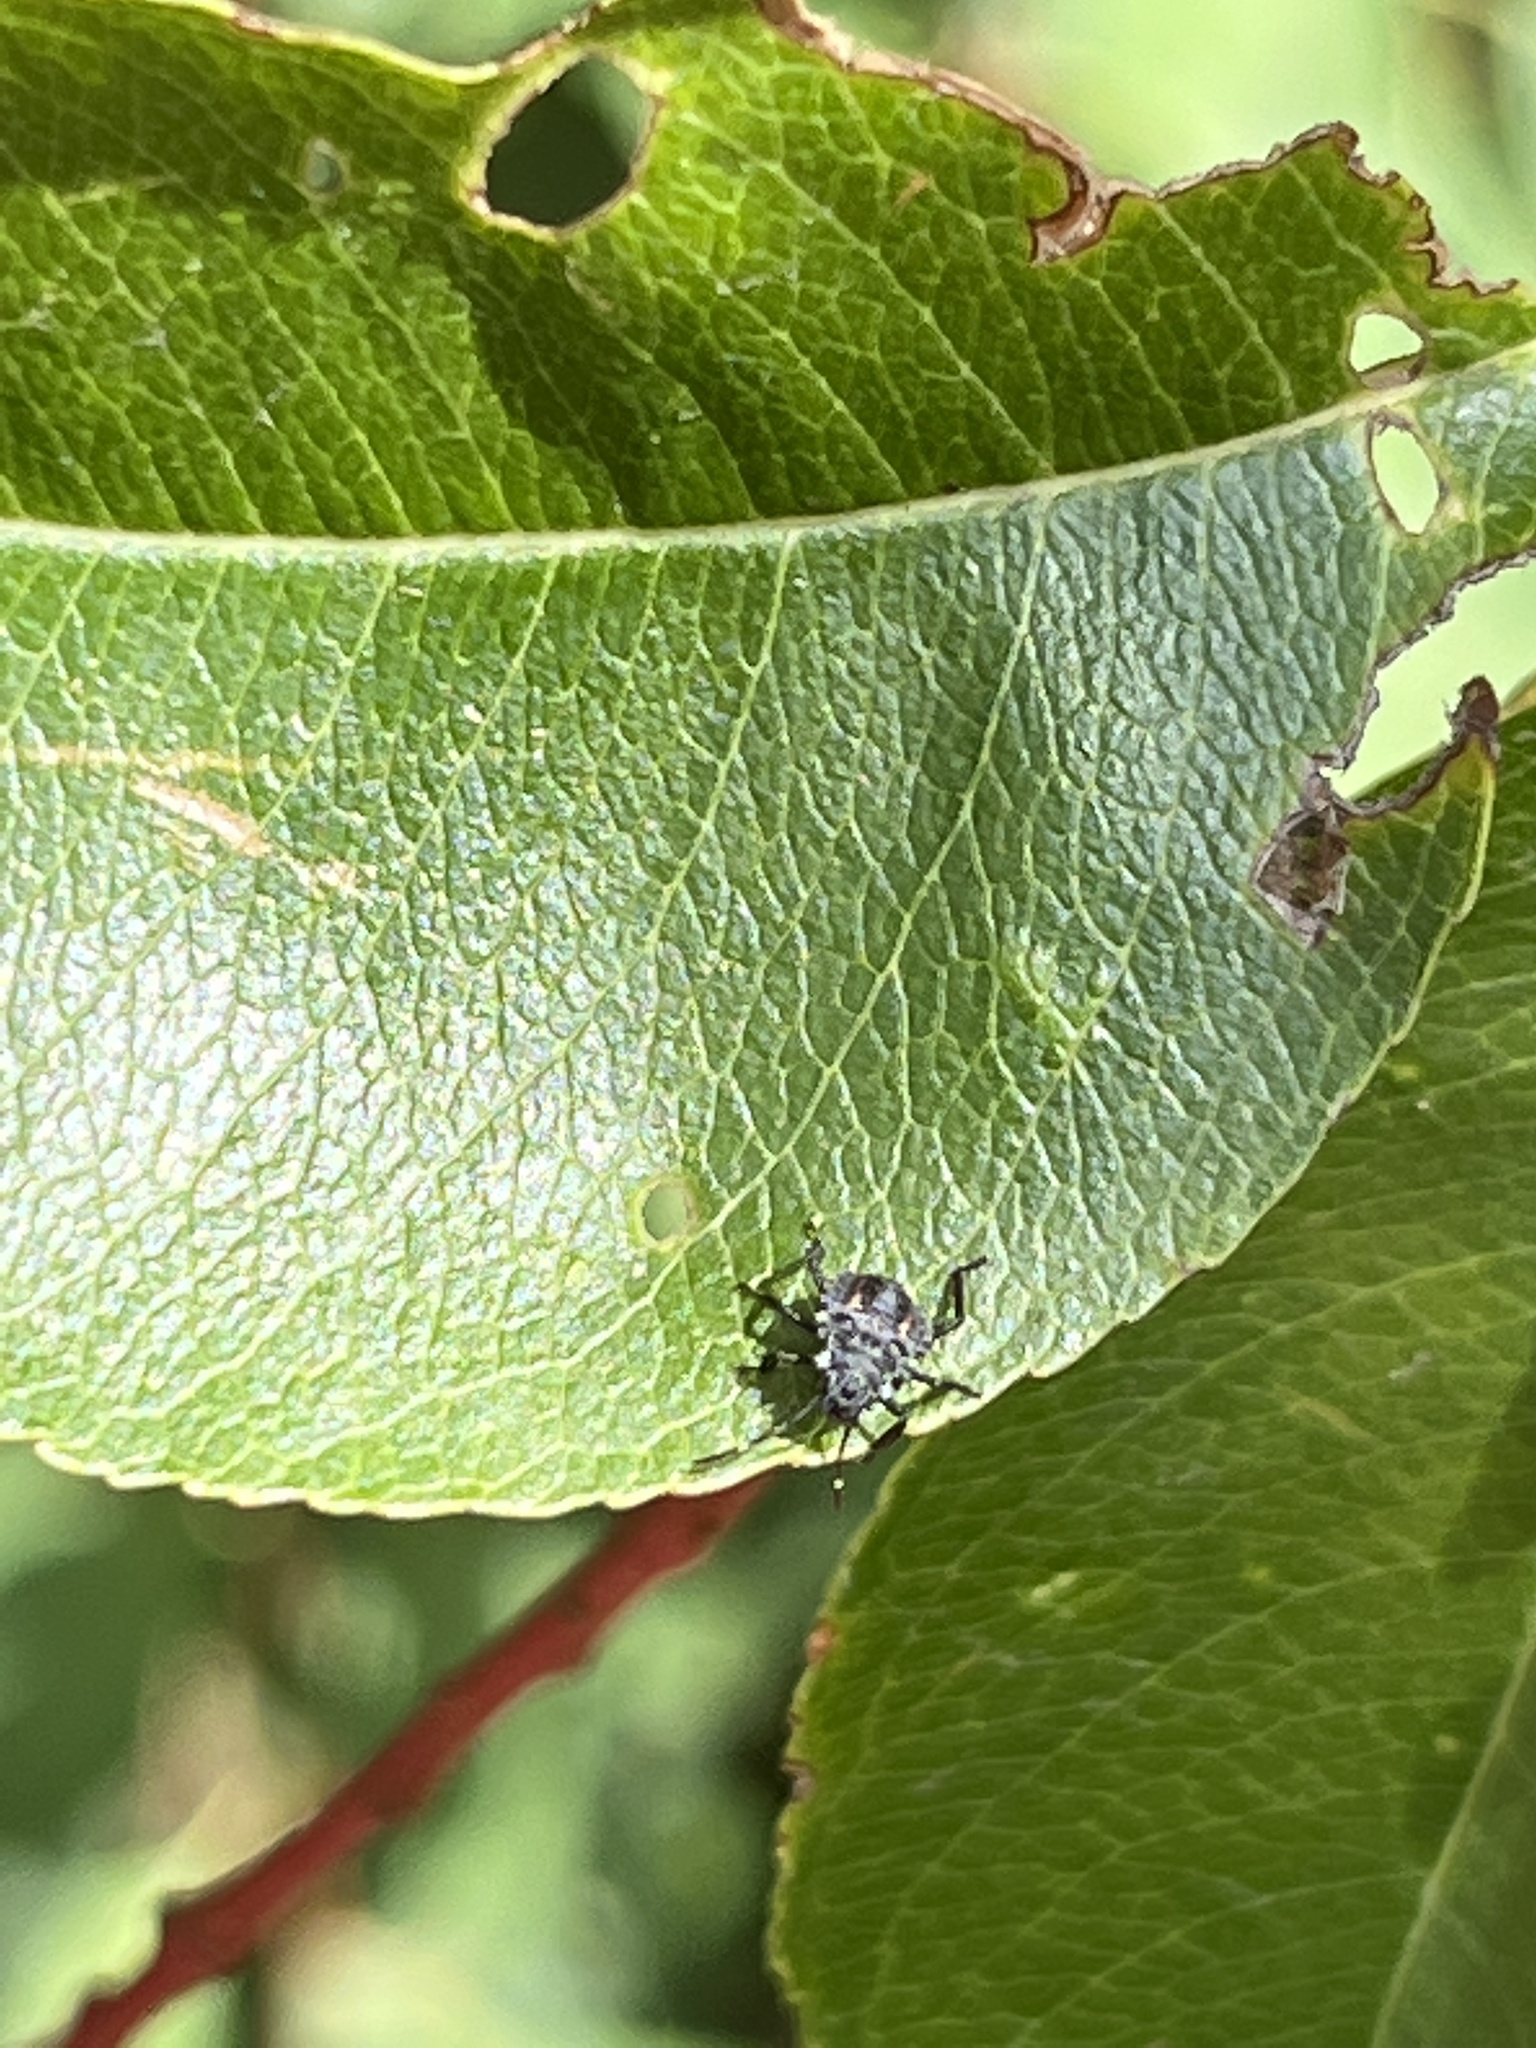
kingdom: Animalia
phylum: Arthropoda
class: Insecta
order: Hemiptera
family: Pentatomidae
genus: Halyomorpha
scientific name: Halyomorpha halys
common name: Brown marmorated stink bug
